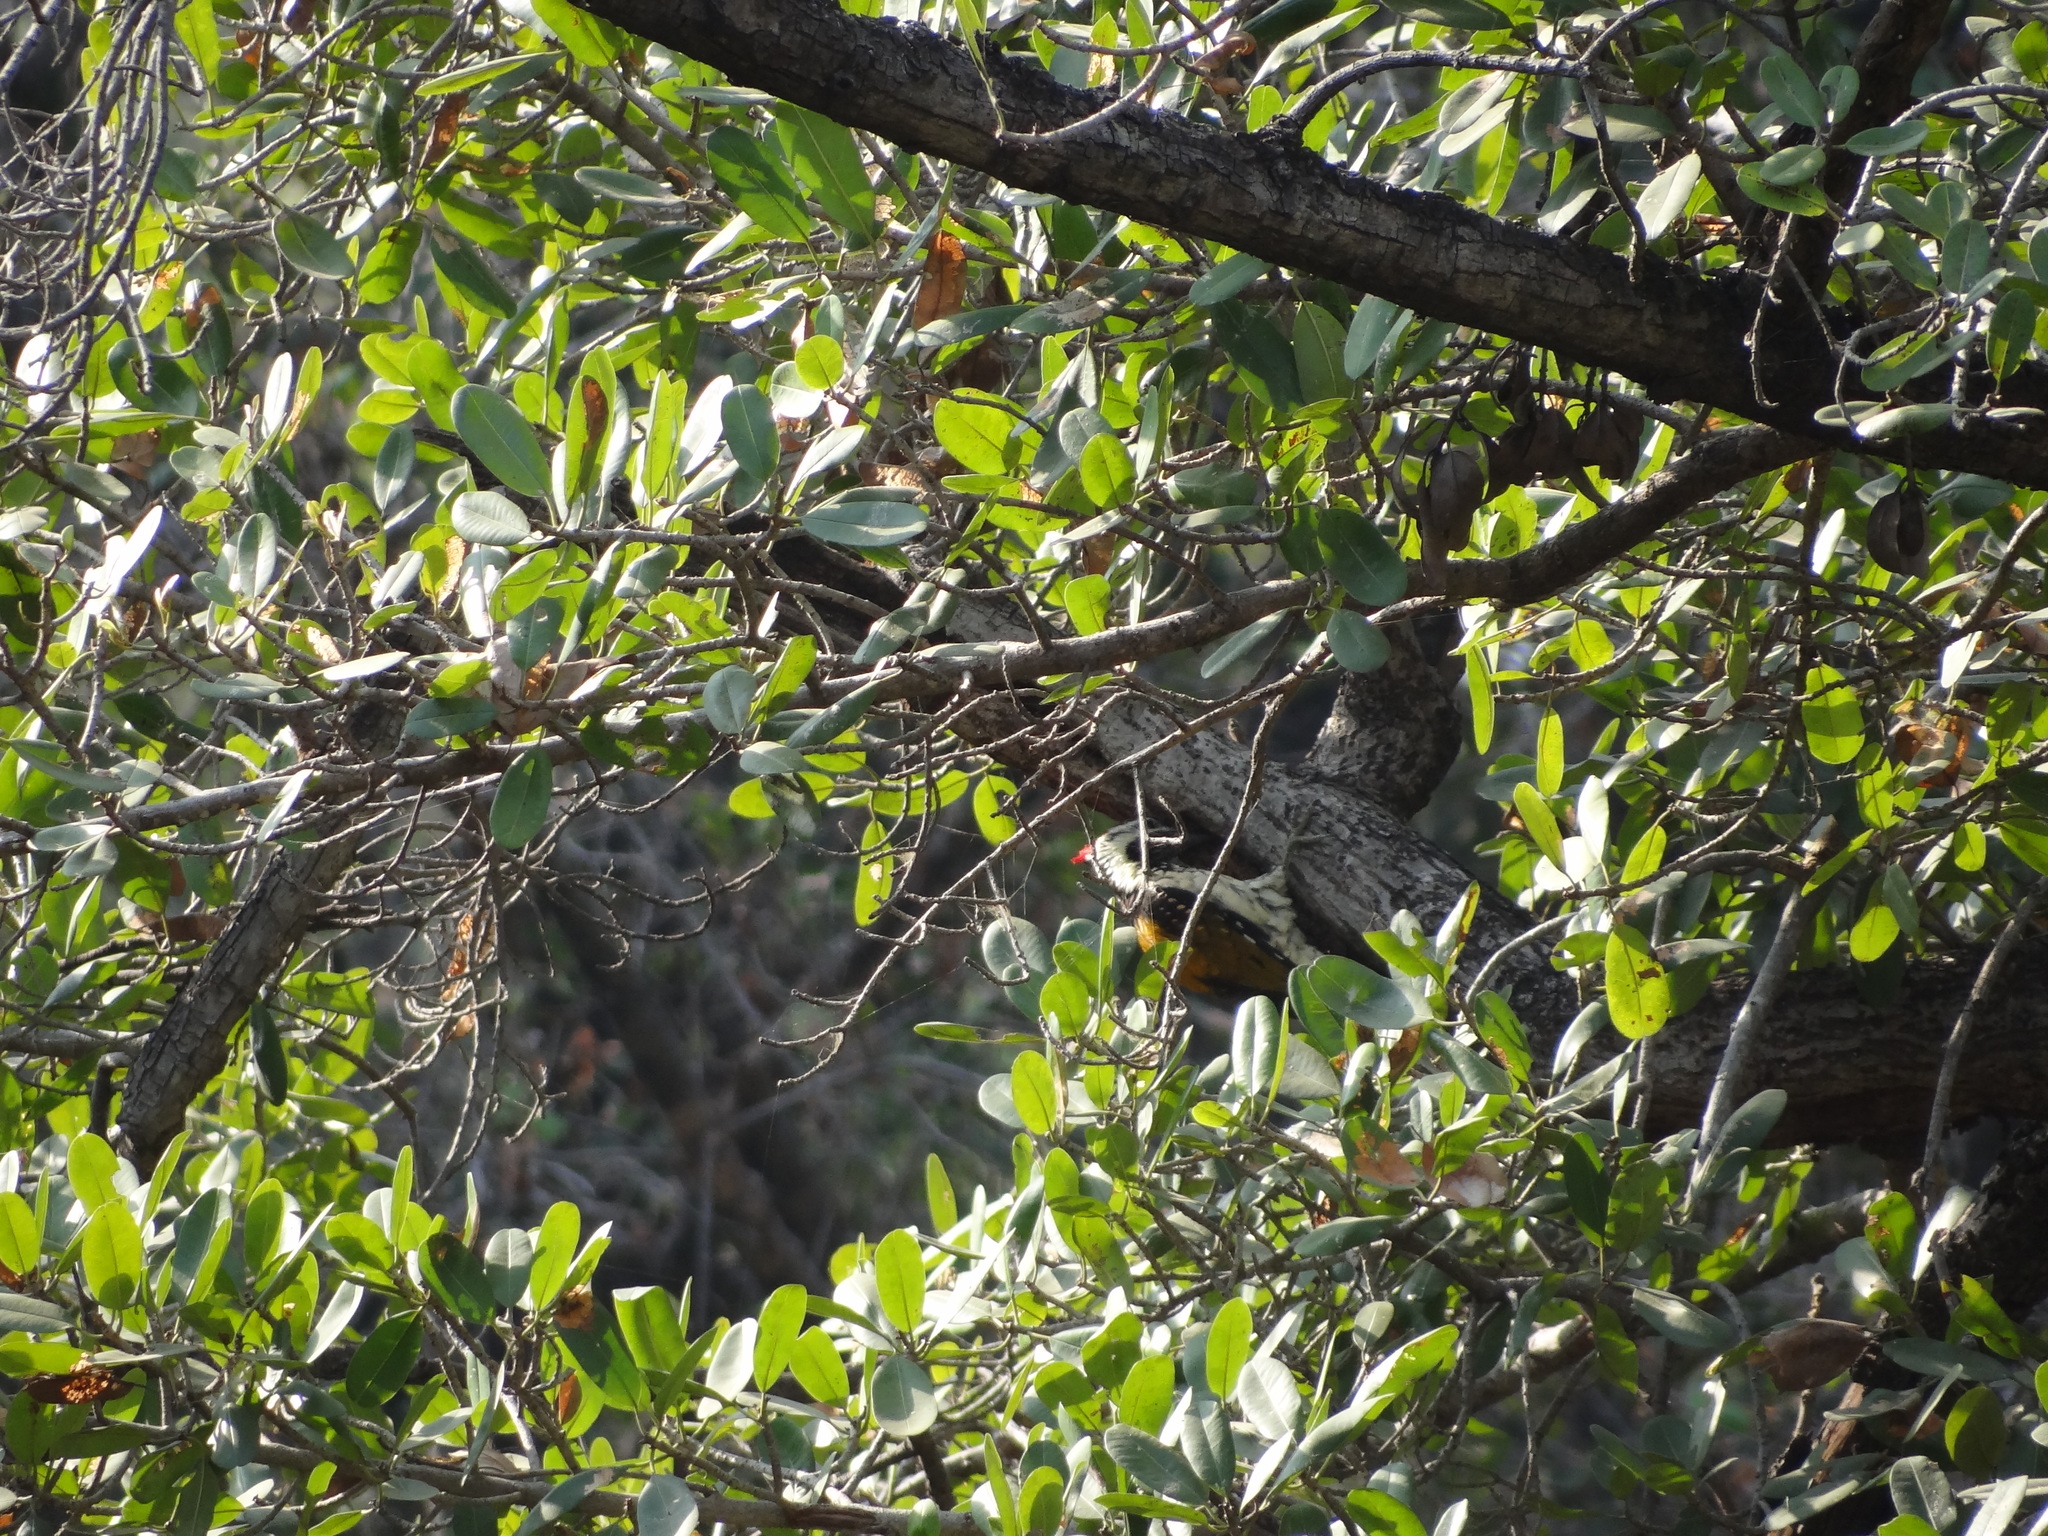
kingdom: Animalia
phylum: Chordata
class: Aves
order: Piciformes
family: Picidae
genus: Dinopium
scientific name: Dinopium benghalense
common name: Black-rumped flameback
